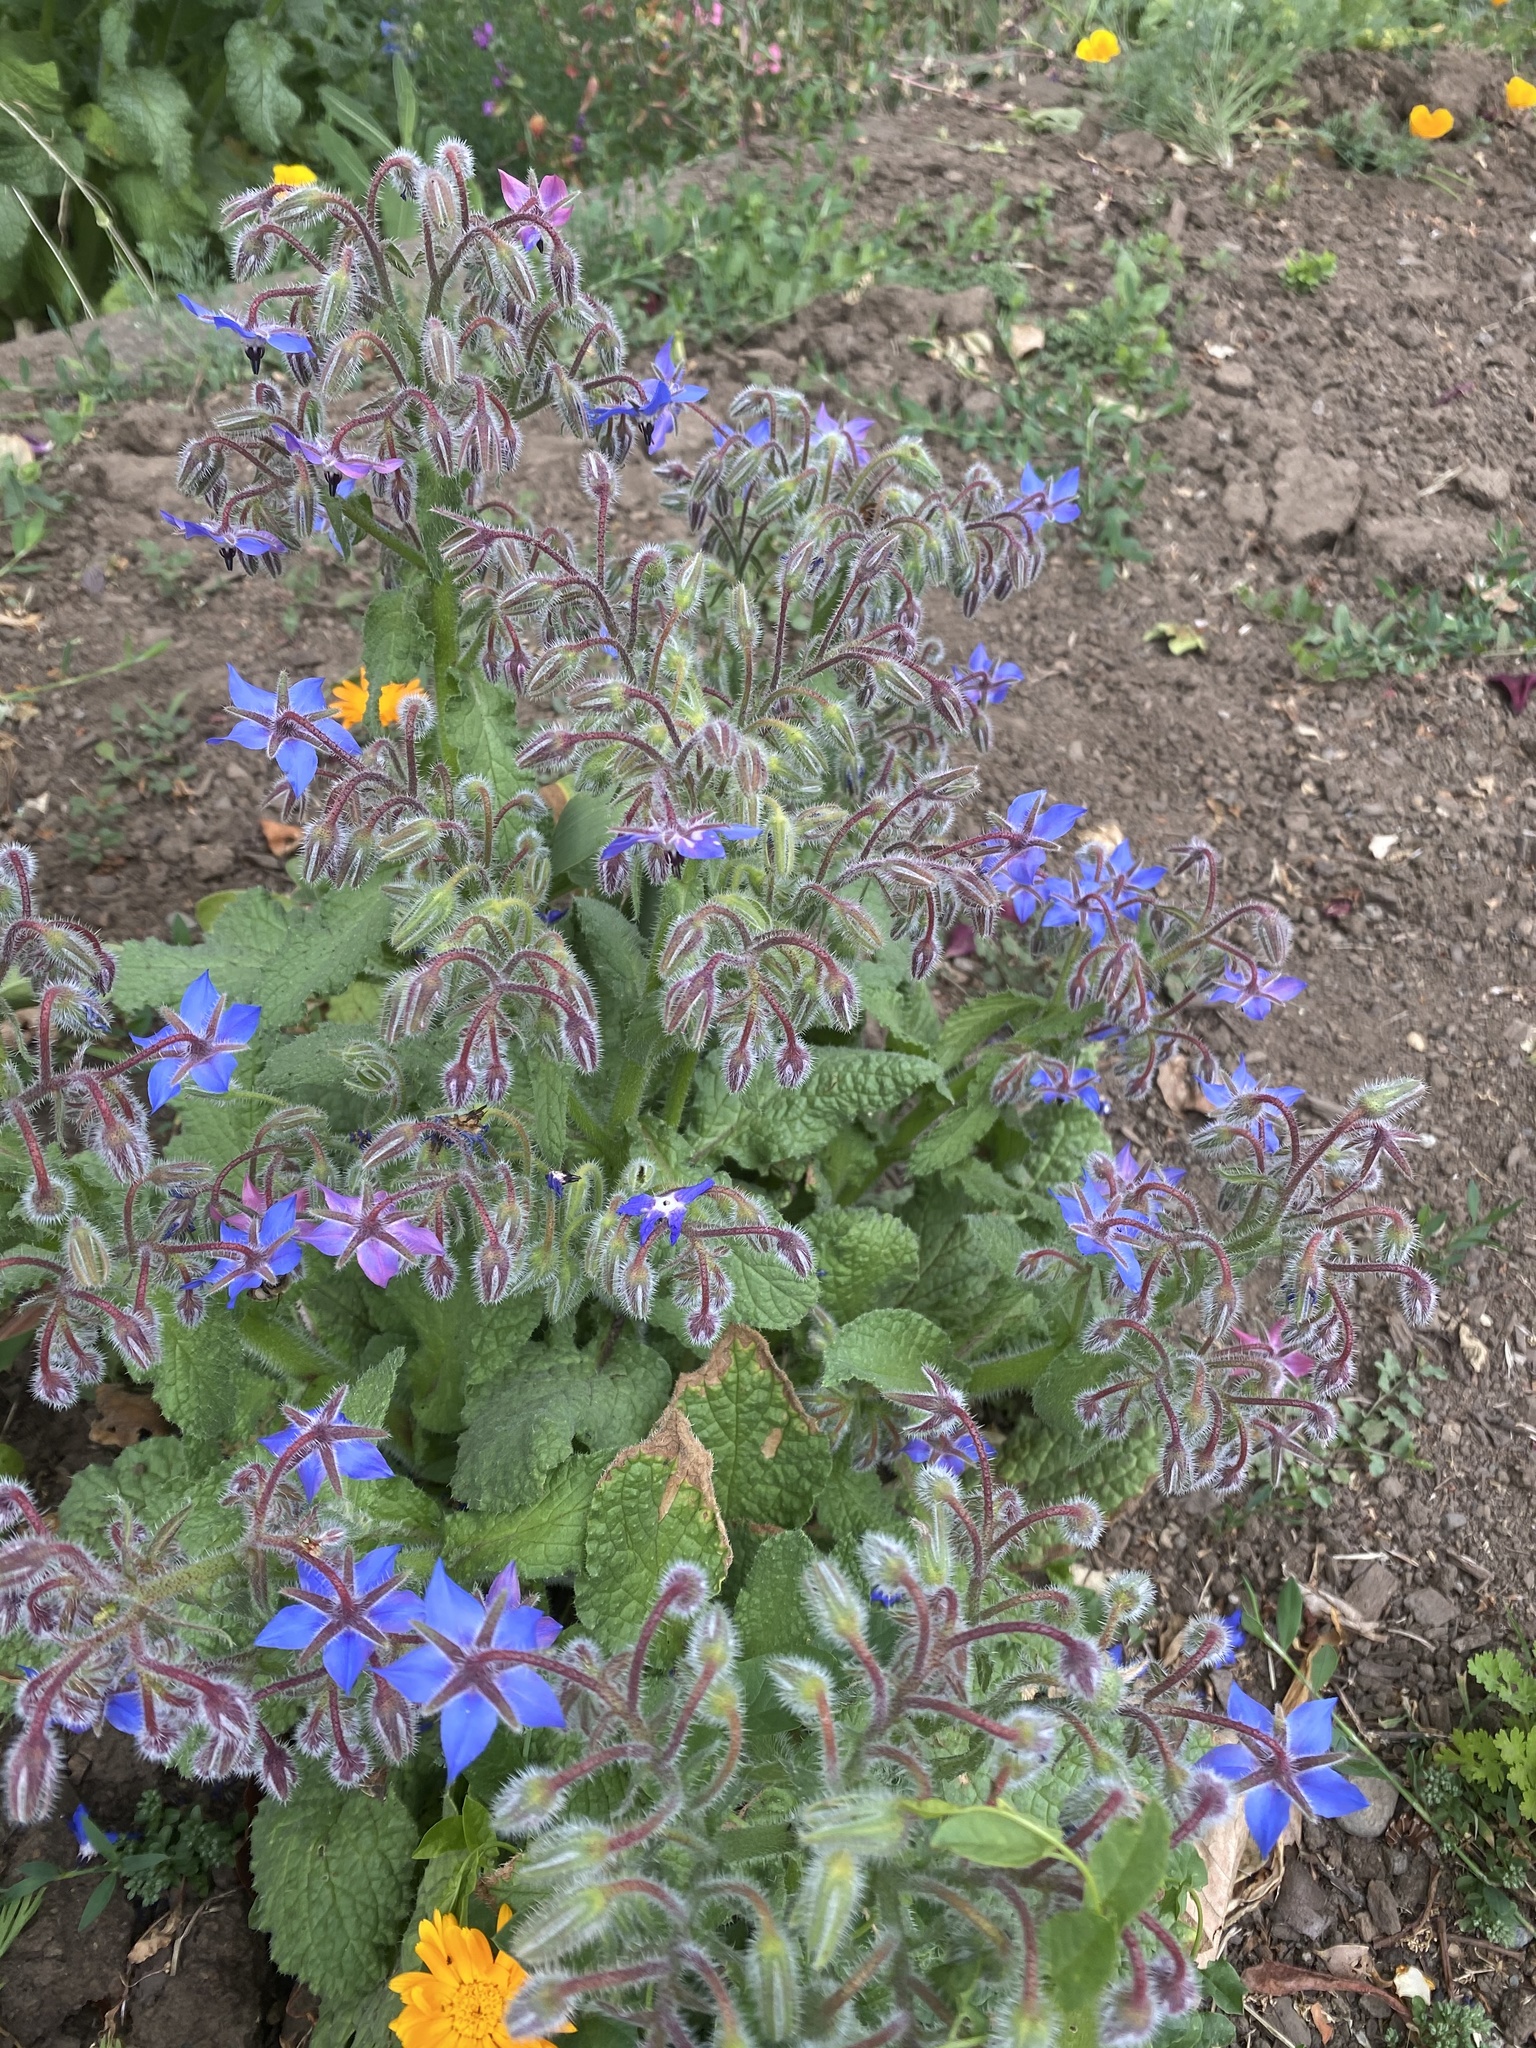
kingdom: Plantae
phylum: Tracheophyta
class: Magnoliopsida
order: Boraginales
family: Boraginaceae
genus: Borago
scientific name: Borago officinalis
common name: Borage
